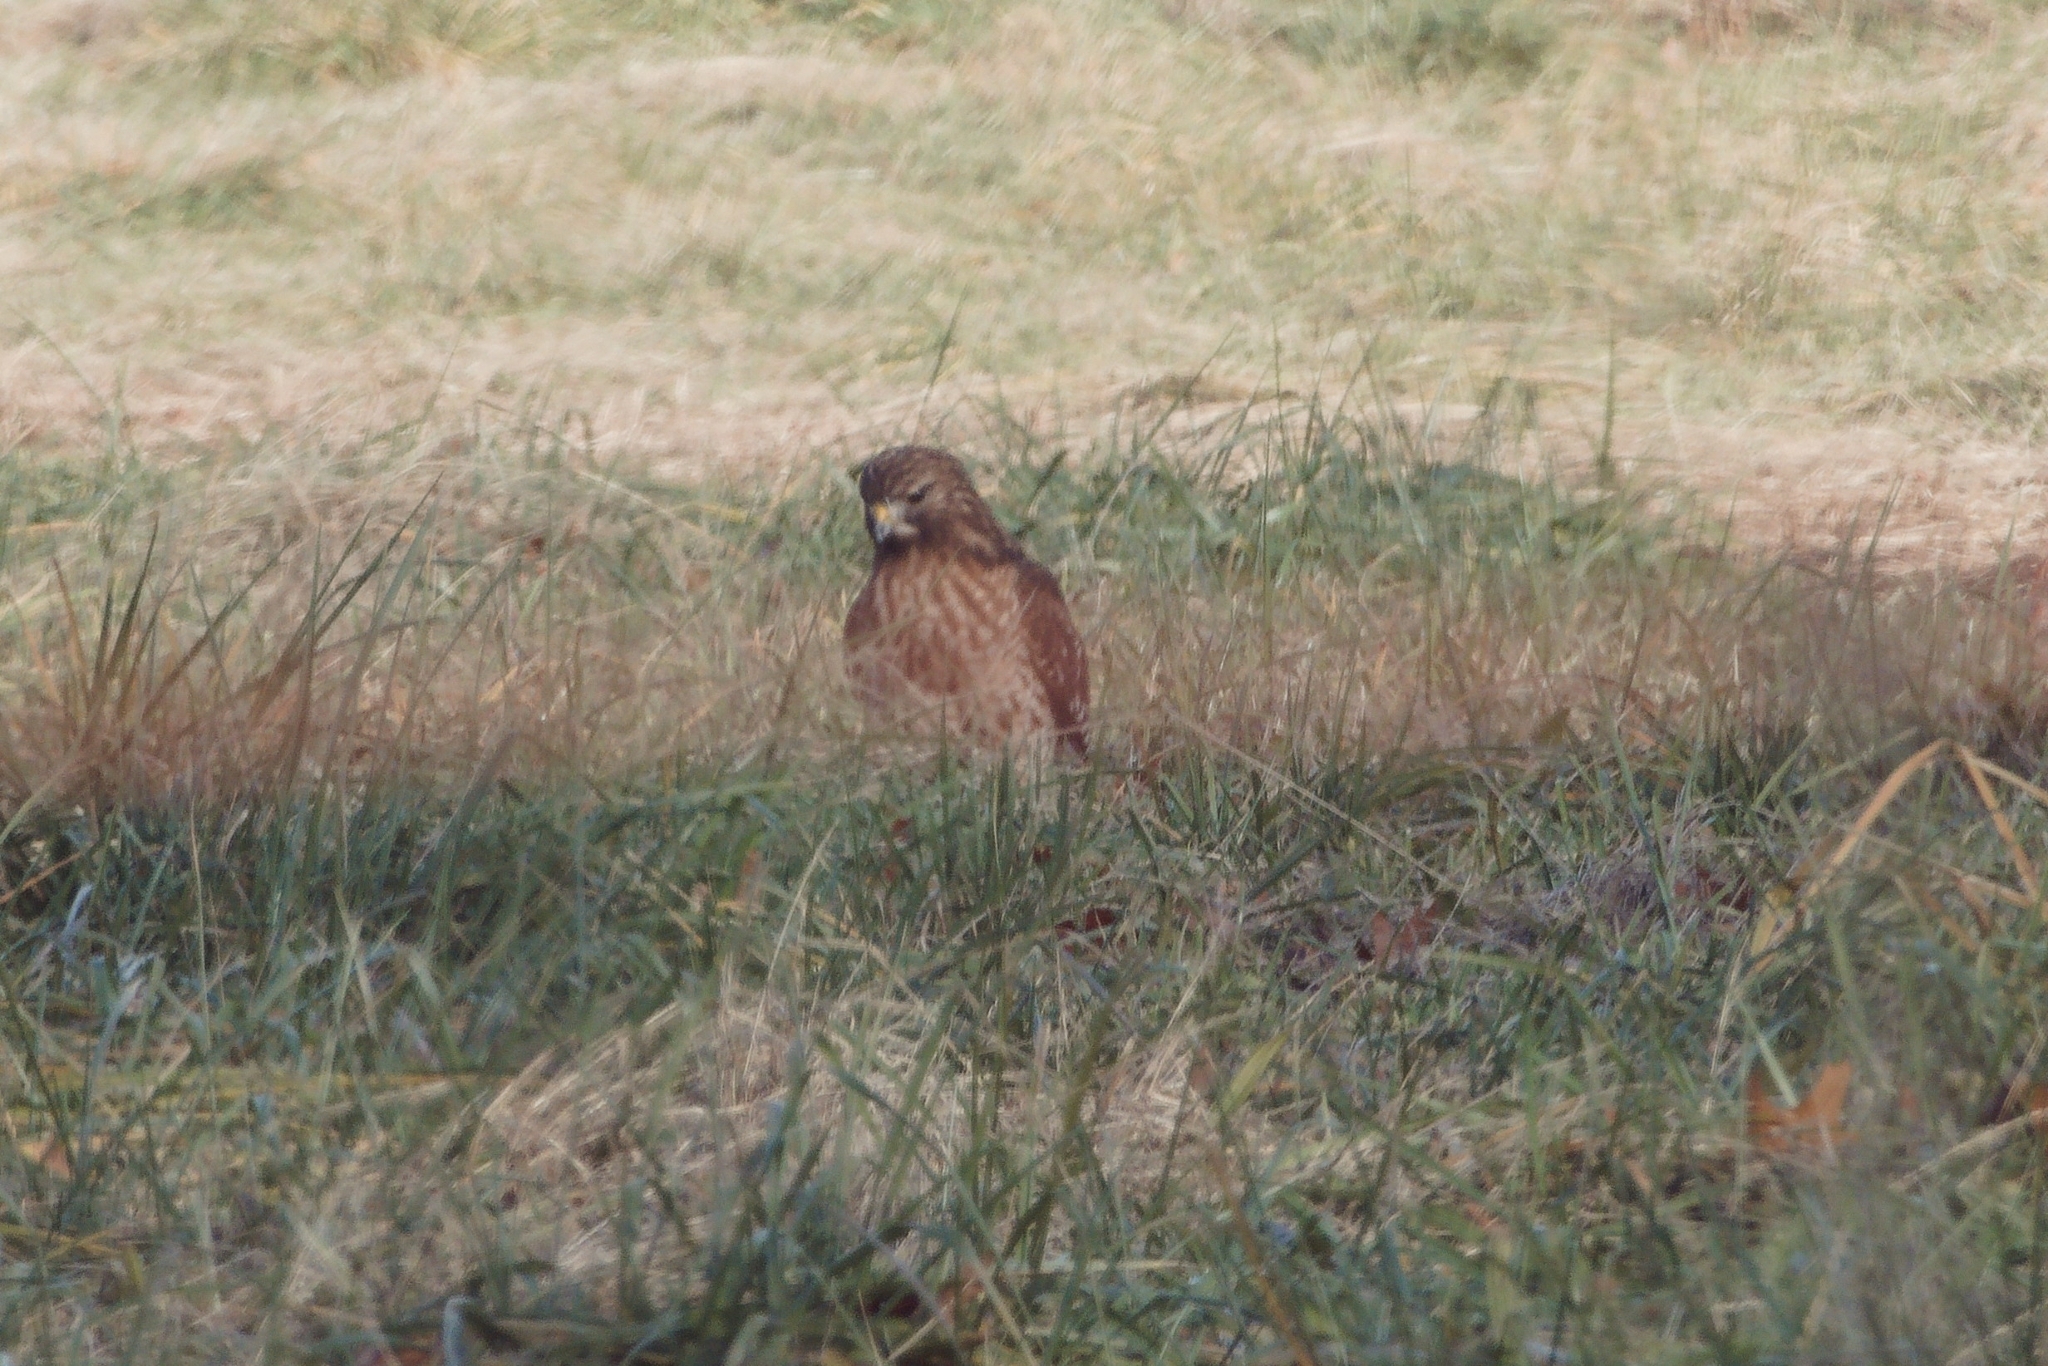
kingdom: Animalia
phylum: Chordata
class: Aves
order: Accipitriformes
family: Accipitridae
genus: Buteo
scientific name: Buteo lineatus
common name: Red-shouldered hawk
